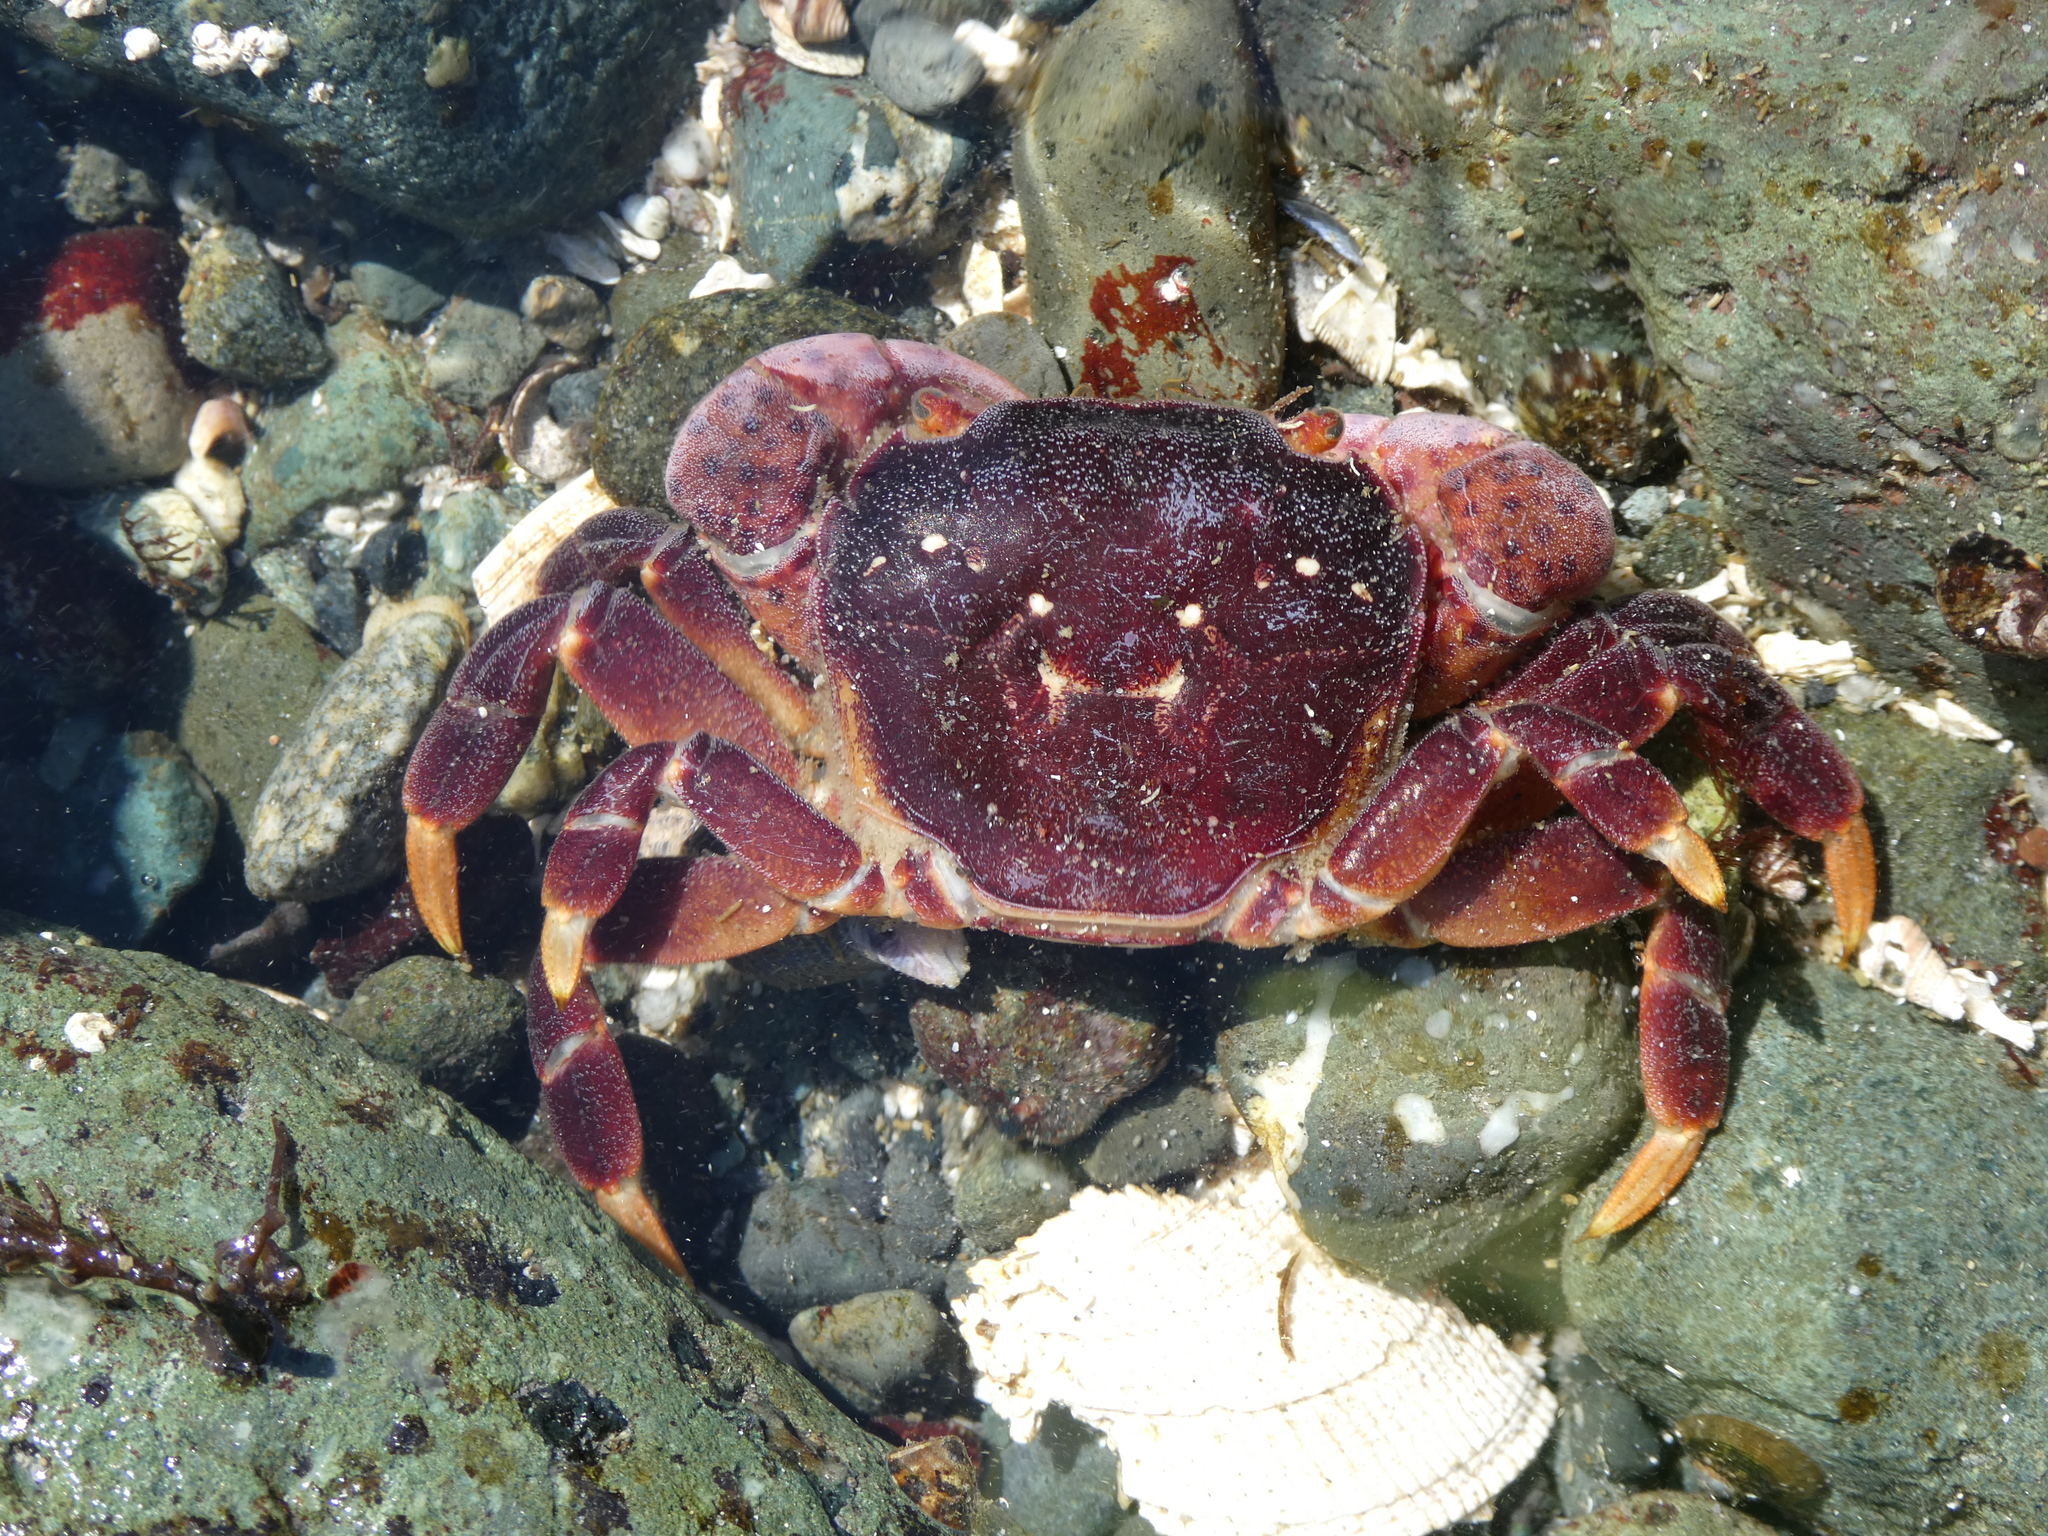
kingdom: Animalia
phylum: Arthropoda
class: Malacostraca
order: Decapoda
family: Varunidae
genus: Hemigrapsus
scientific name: Hemigrapsus nudus
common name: Purple shore crab
